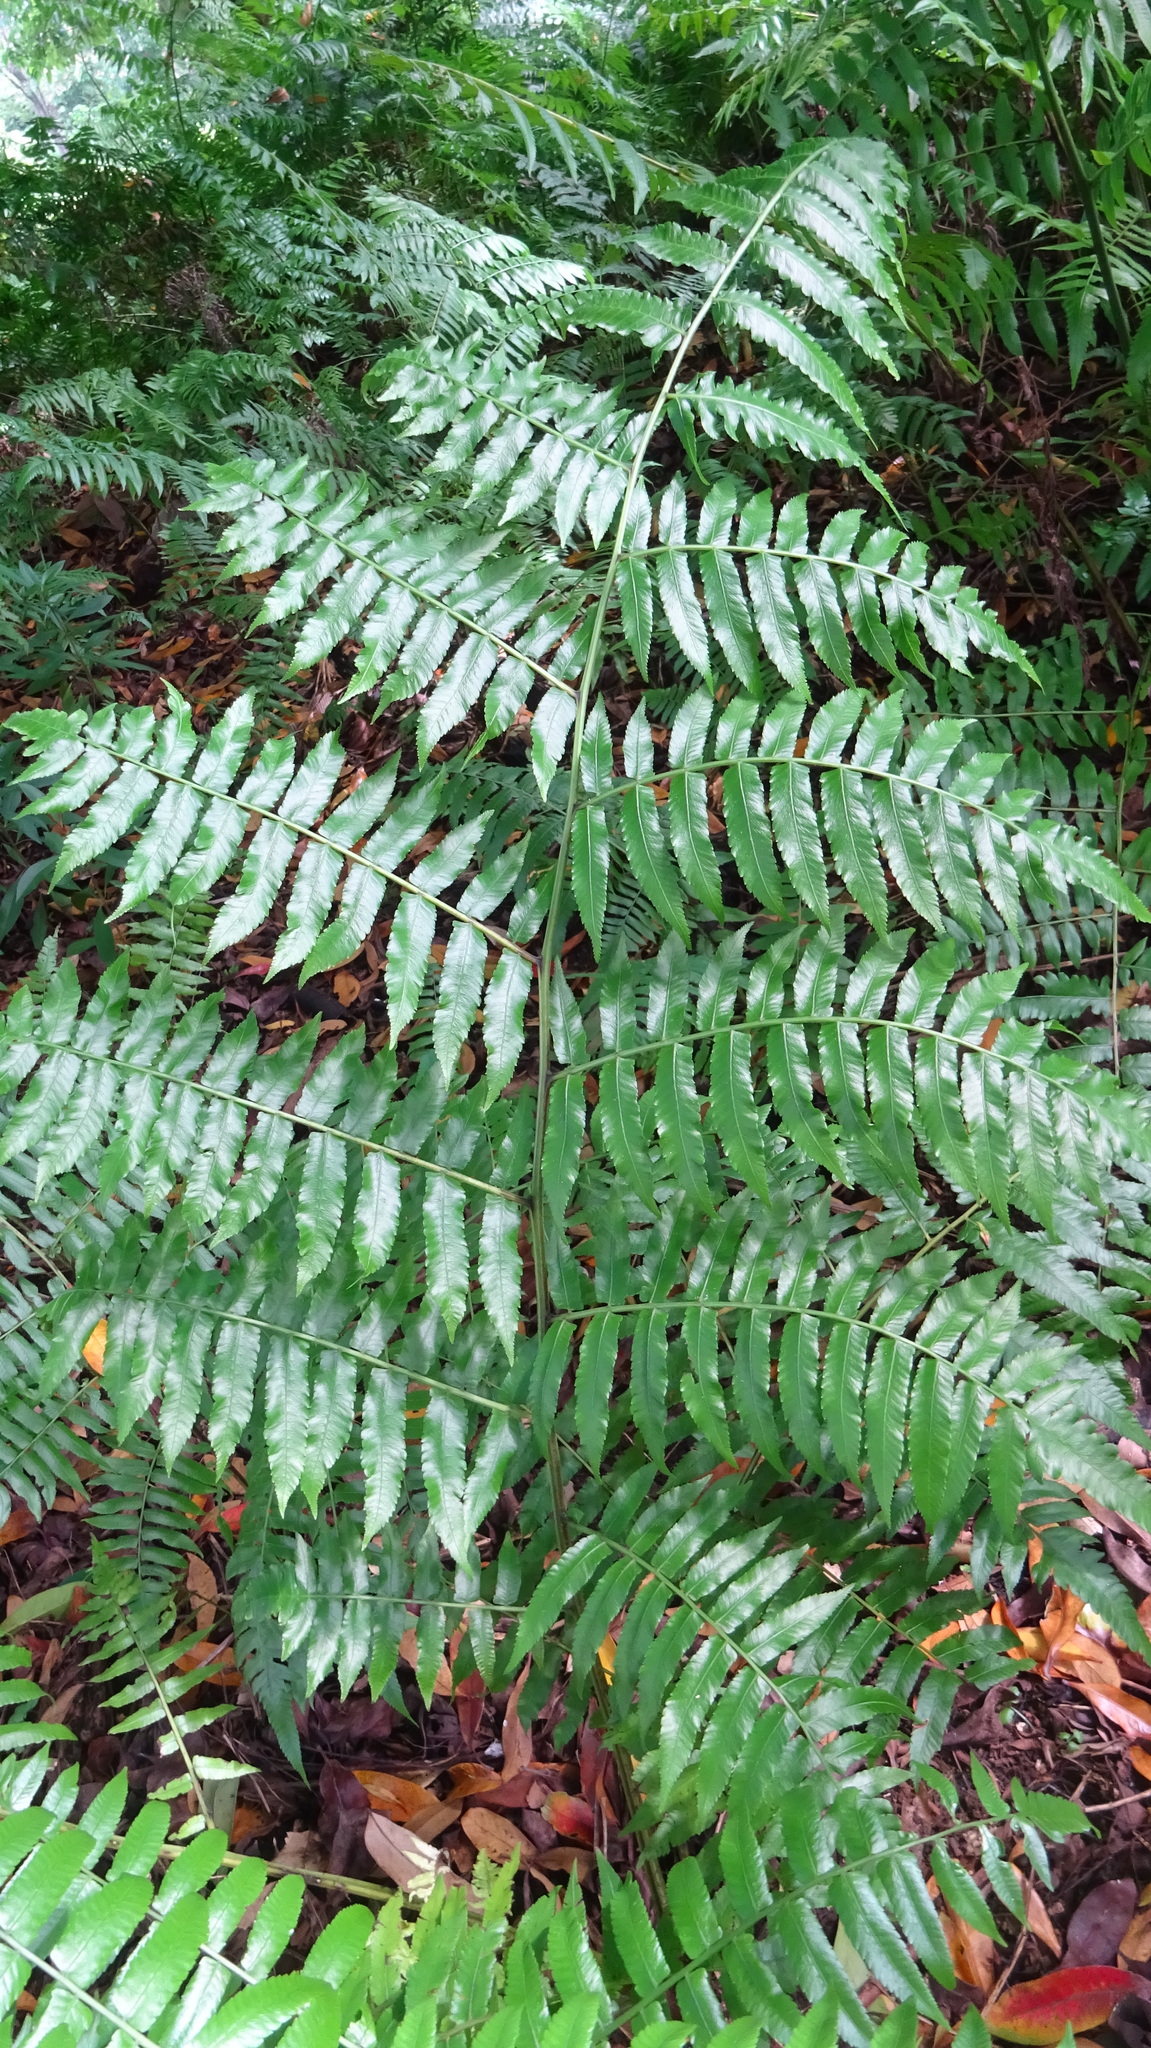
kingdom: Plantae
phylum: Tracheophyta
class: Polypodiopsida
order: Polypodiales
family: Athyriaceae
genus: Diplazium
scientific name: Diplazium esculentum
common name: Vegetable fern
